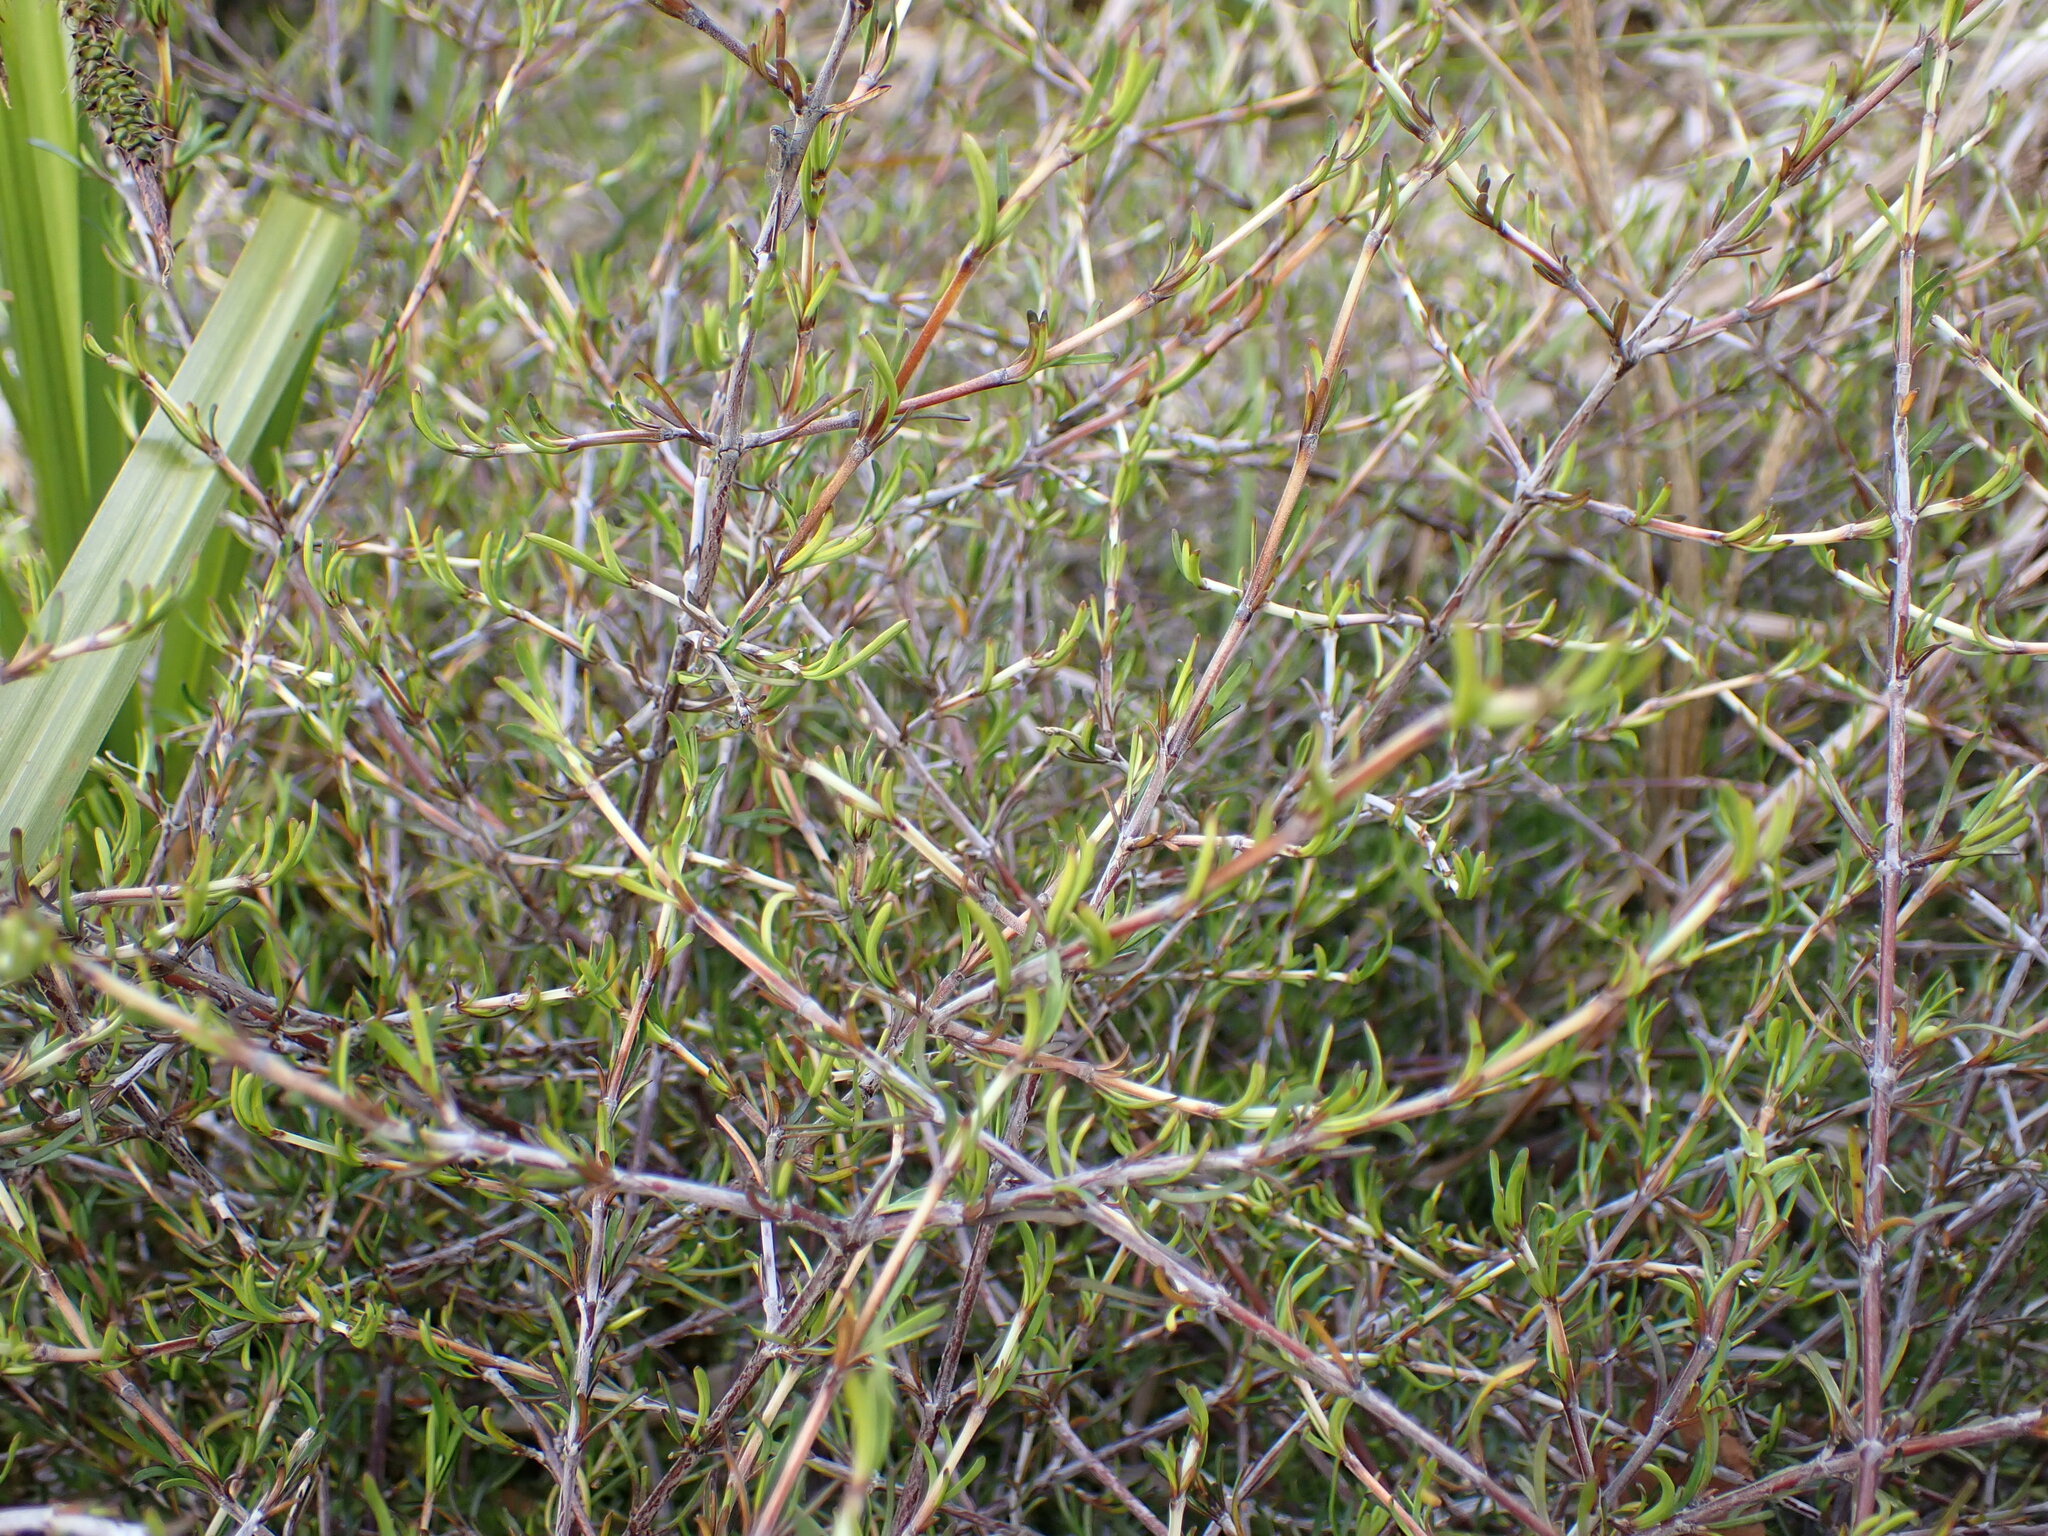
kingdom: Plantae
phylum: Tracheophyta
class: Magnoliopsida
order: Gentianales
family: Rubiaceae
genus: Coprosma
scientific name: Coprosma elatirioides
